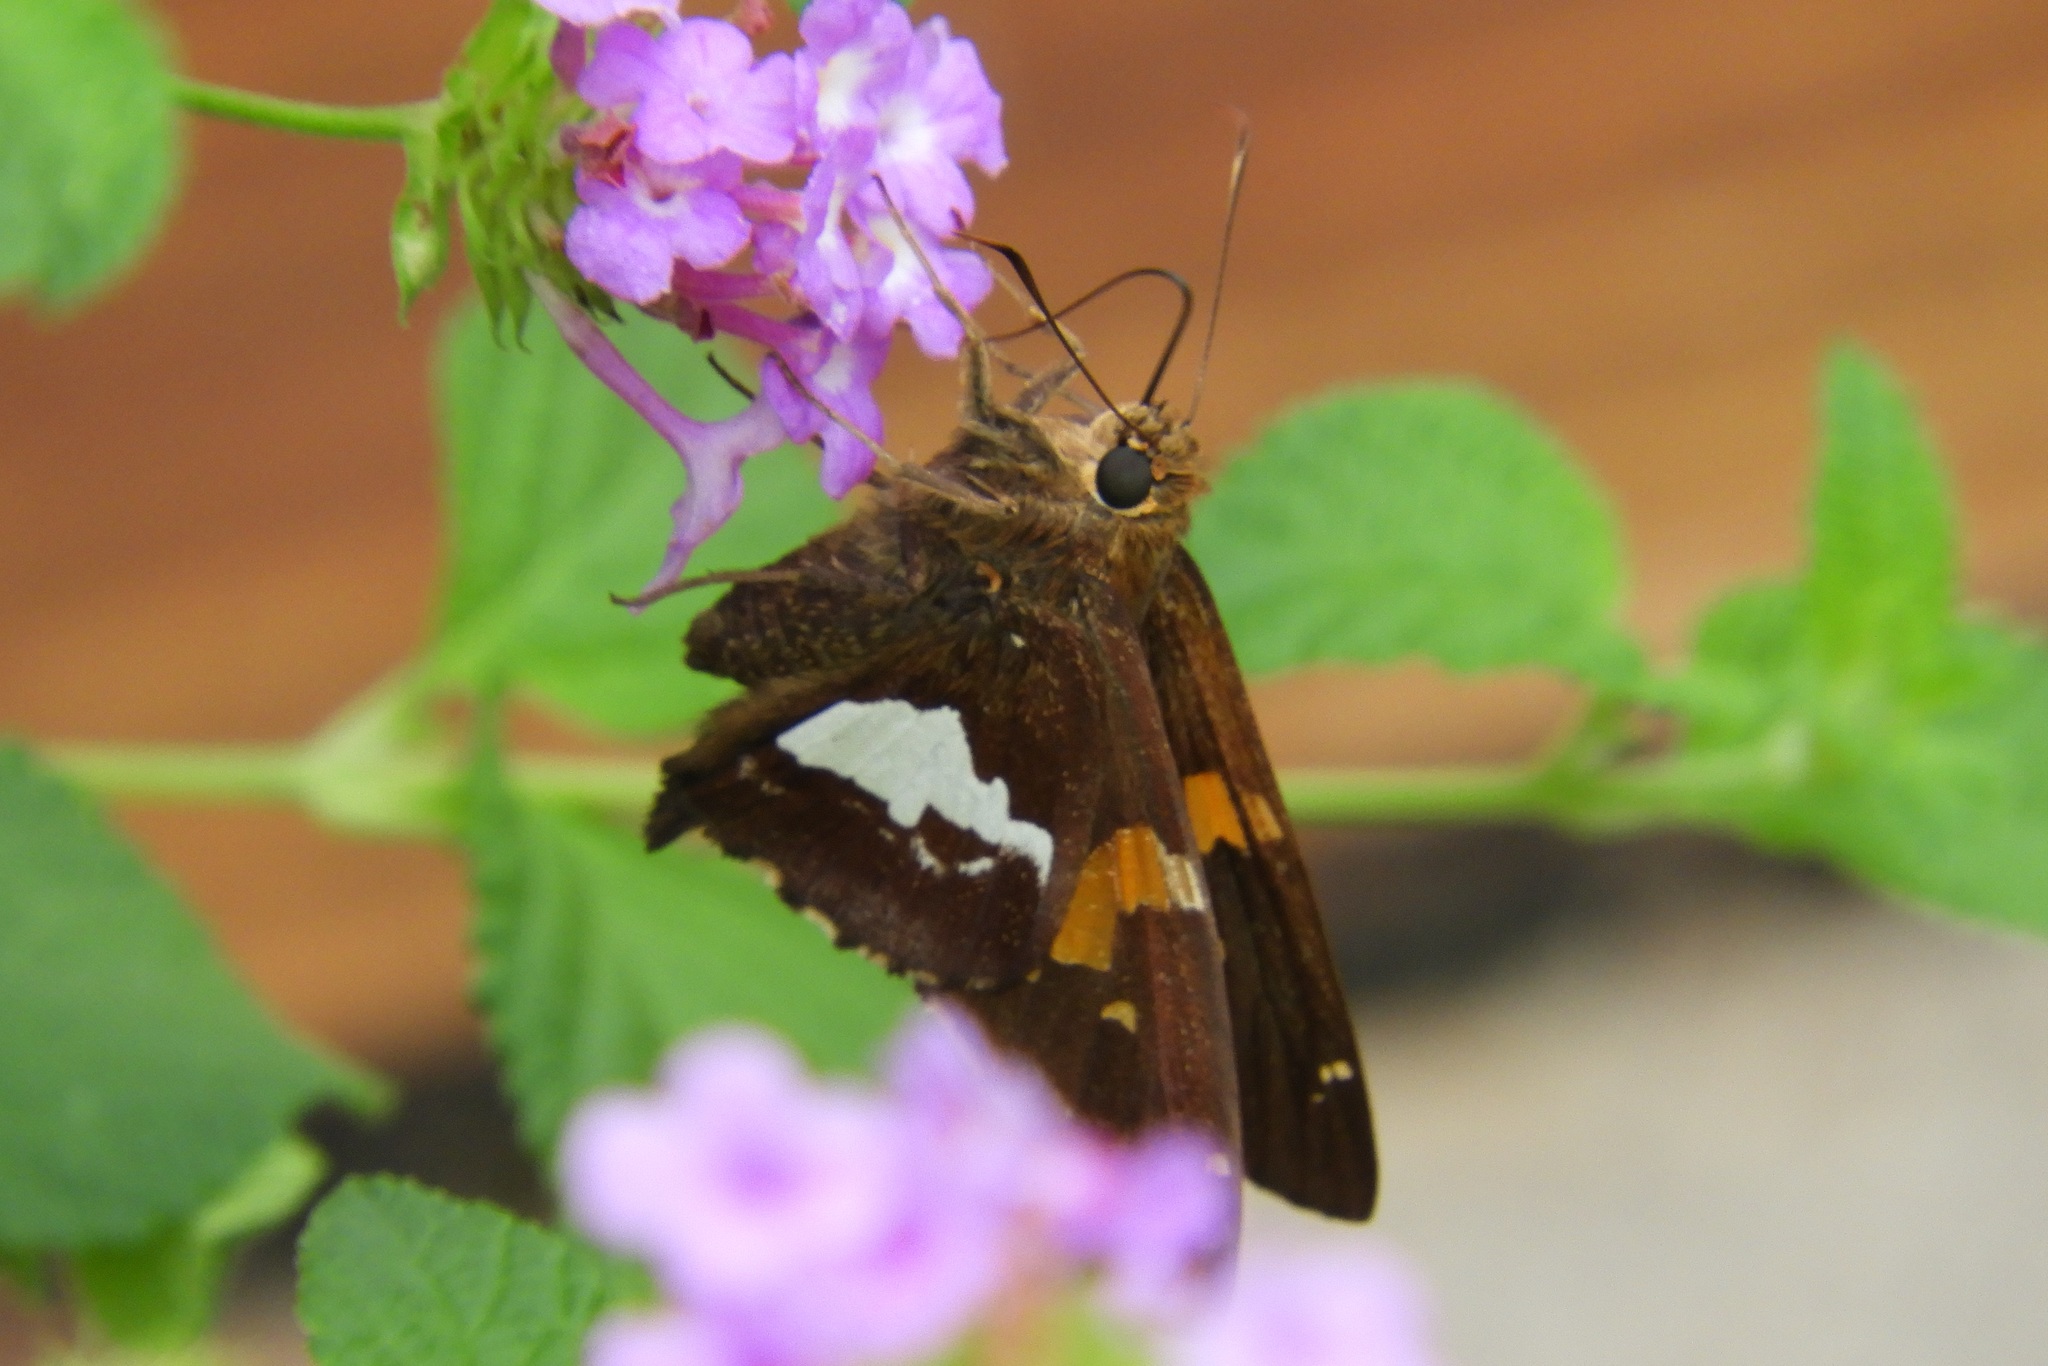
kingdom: Animalia
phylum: Arthropoda
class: Insecta
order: Lepidoptera
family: Hesperiidae
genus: Epargyreus
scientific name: Epargyreus clarus
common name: Silver-spotted skipper
